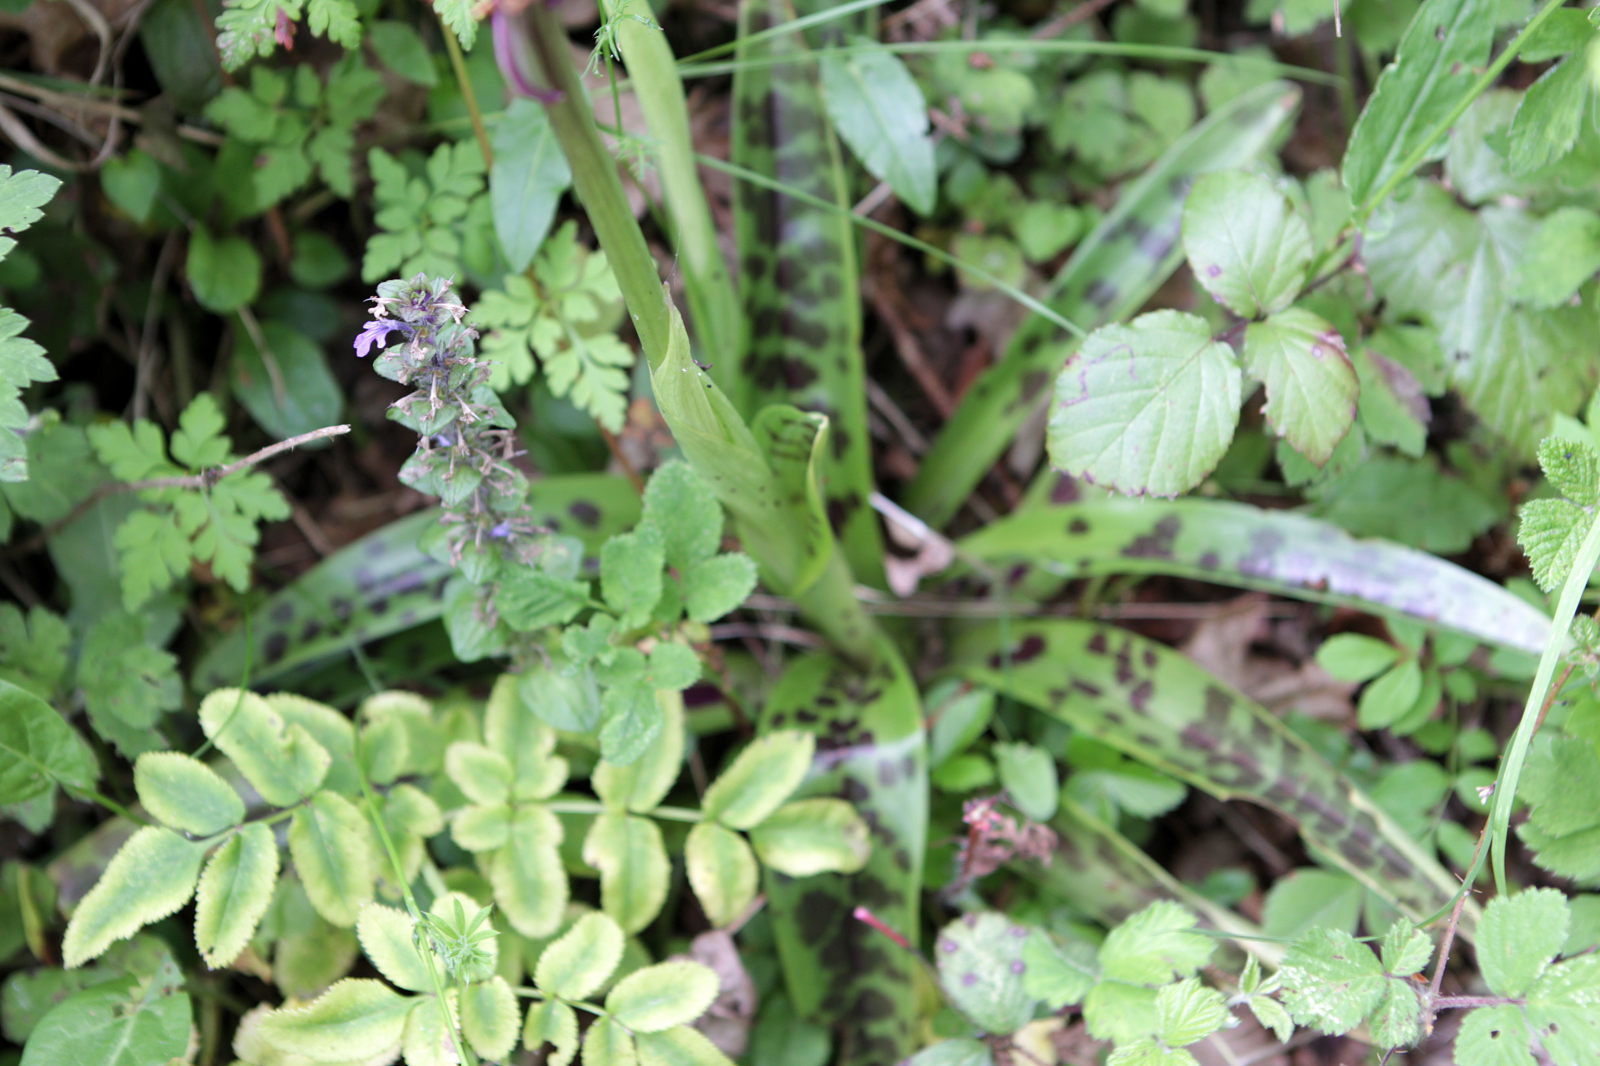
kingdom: Plantae
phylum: Tracheophyta
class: Liliopsida
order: Asparagales
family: Orchidaceae
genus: Orchis
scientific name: Orchis mascula
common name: Early-purple orchid
